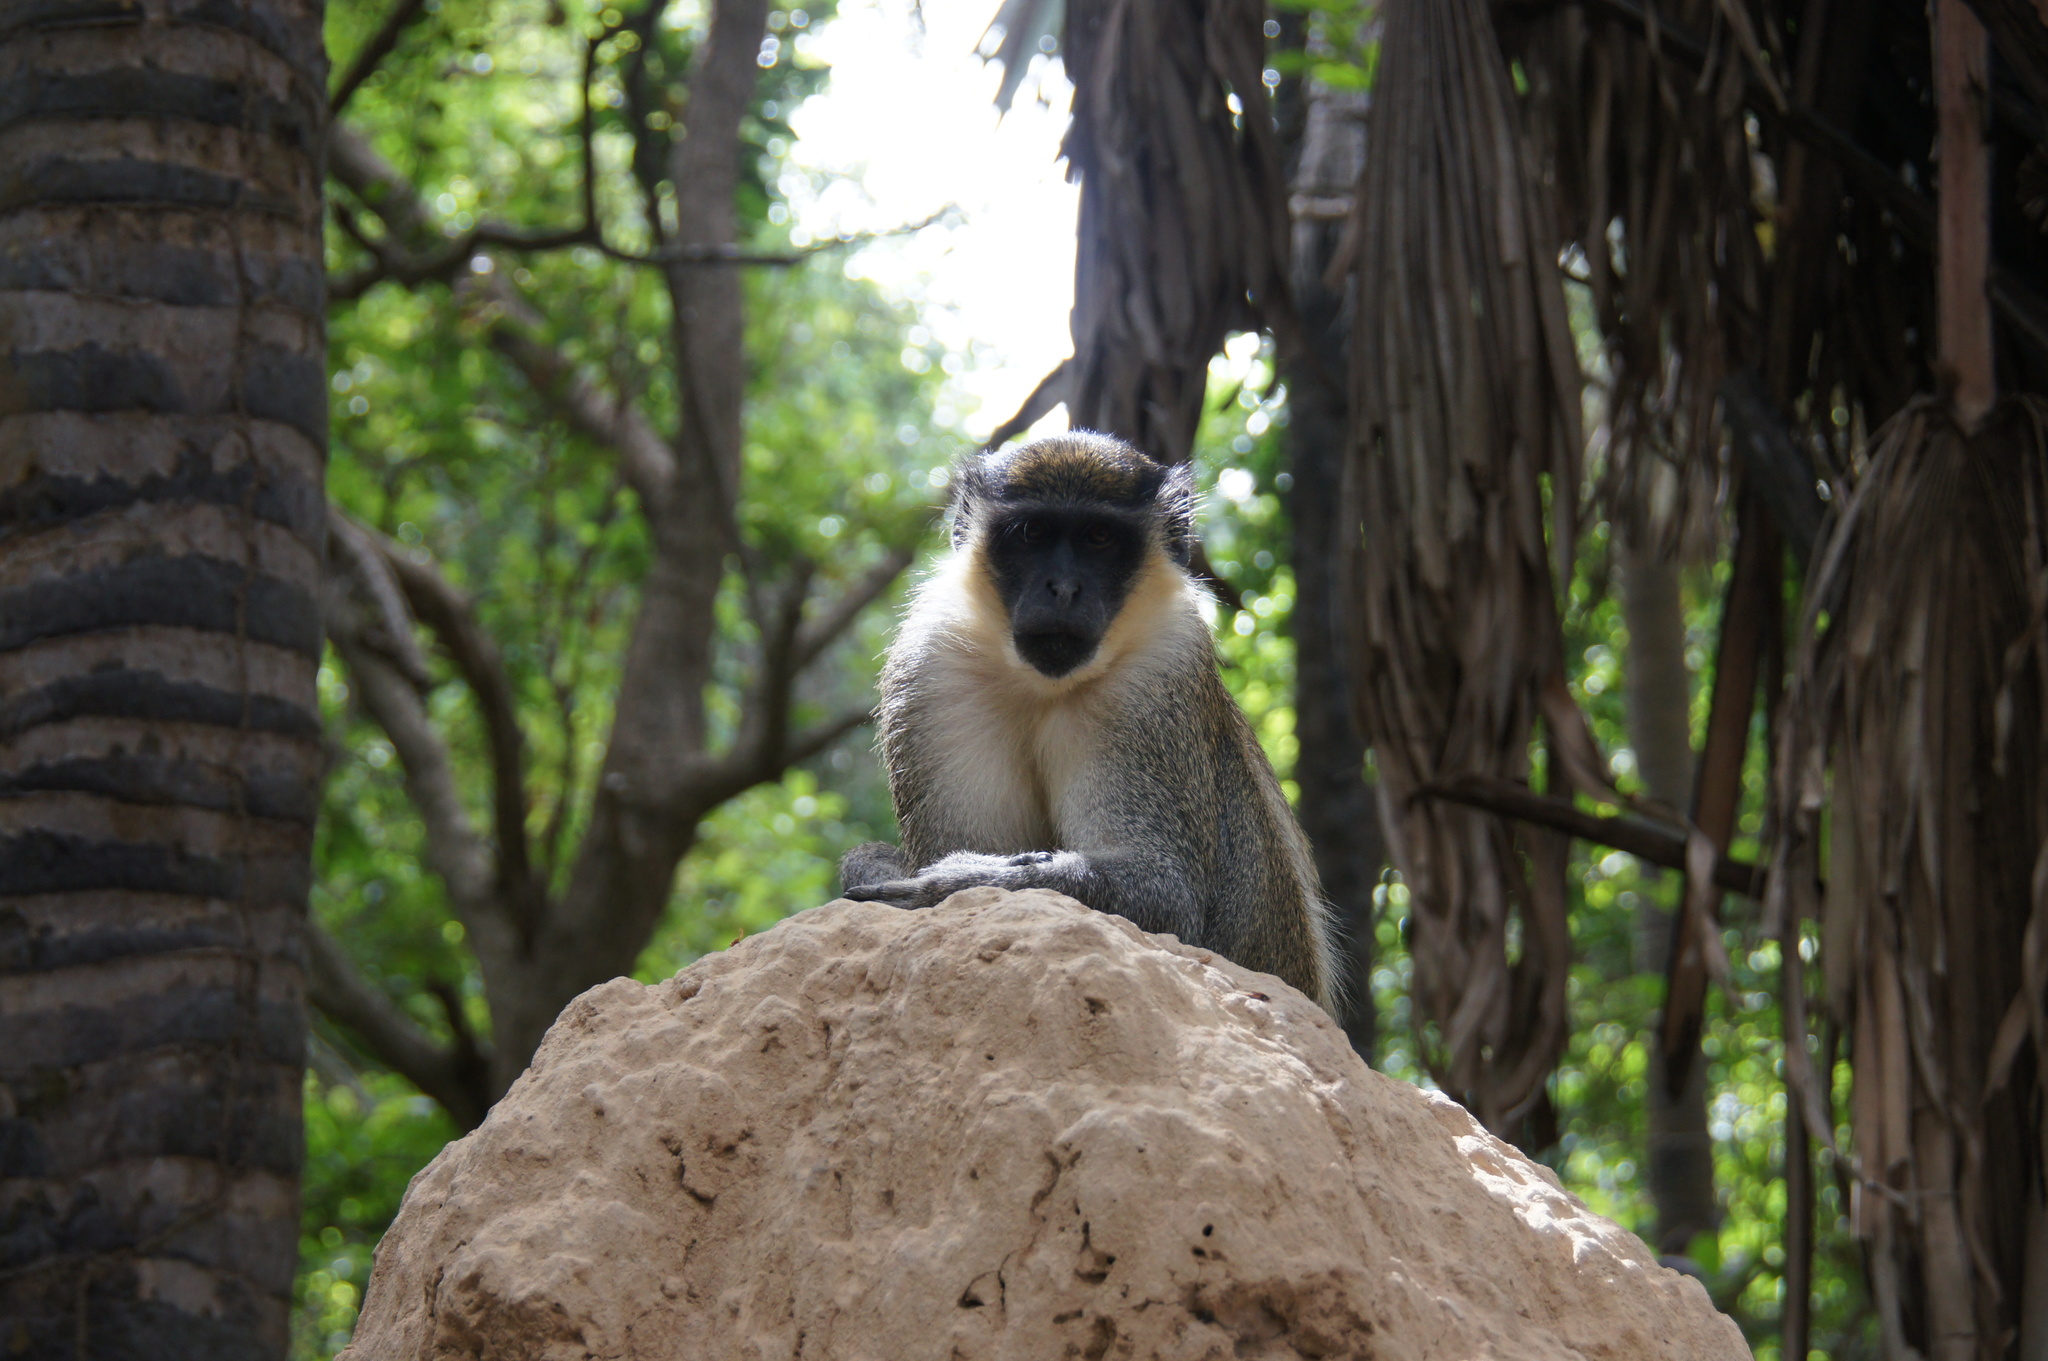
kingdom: Animalia
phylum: Chordata
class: Mammalia
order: Primates
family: Cercopithecidae
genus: Chlorocebus
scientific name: Chlorocebus sabaeus
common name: Green monkey
